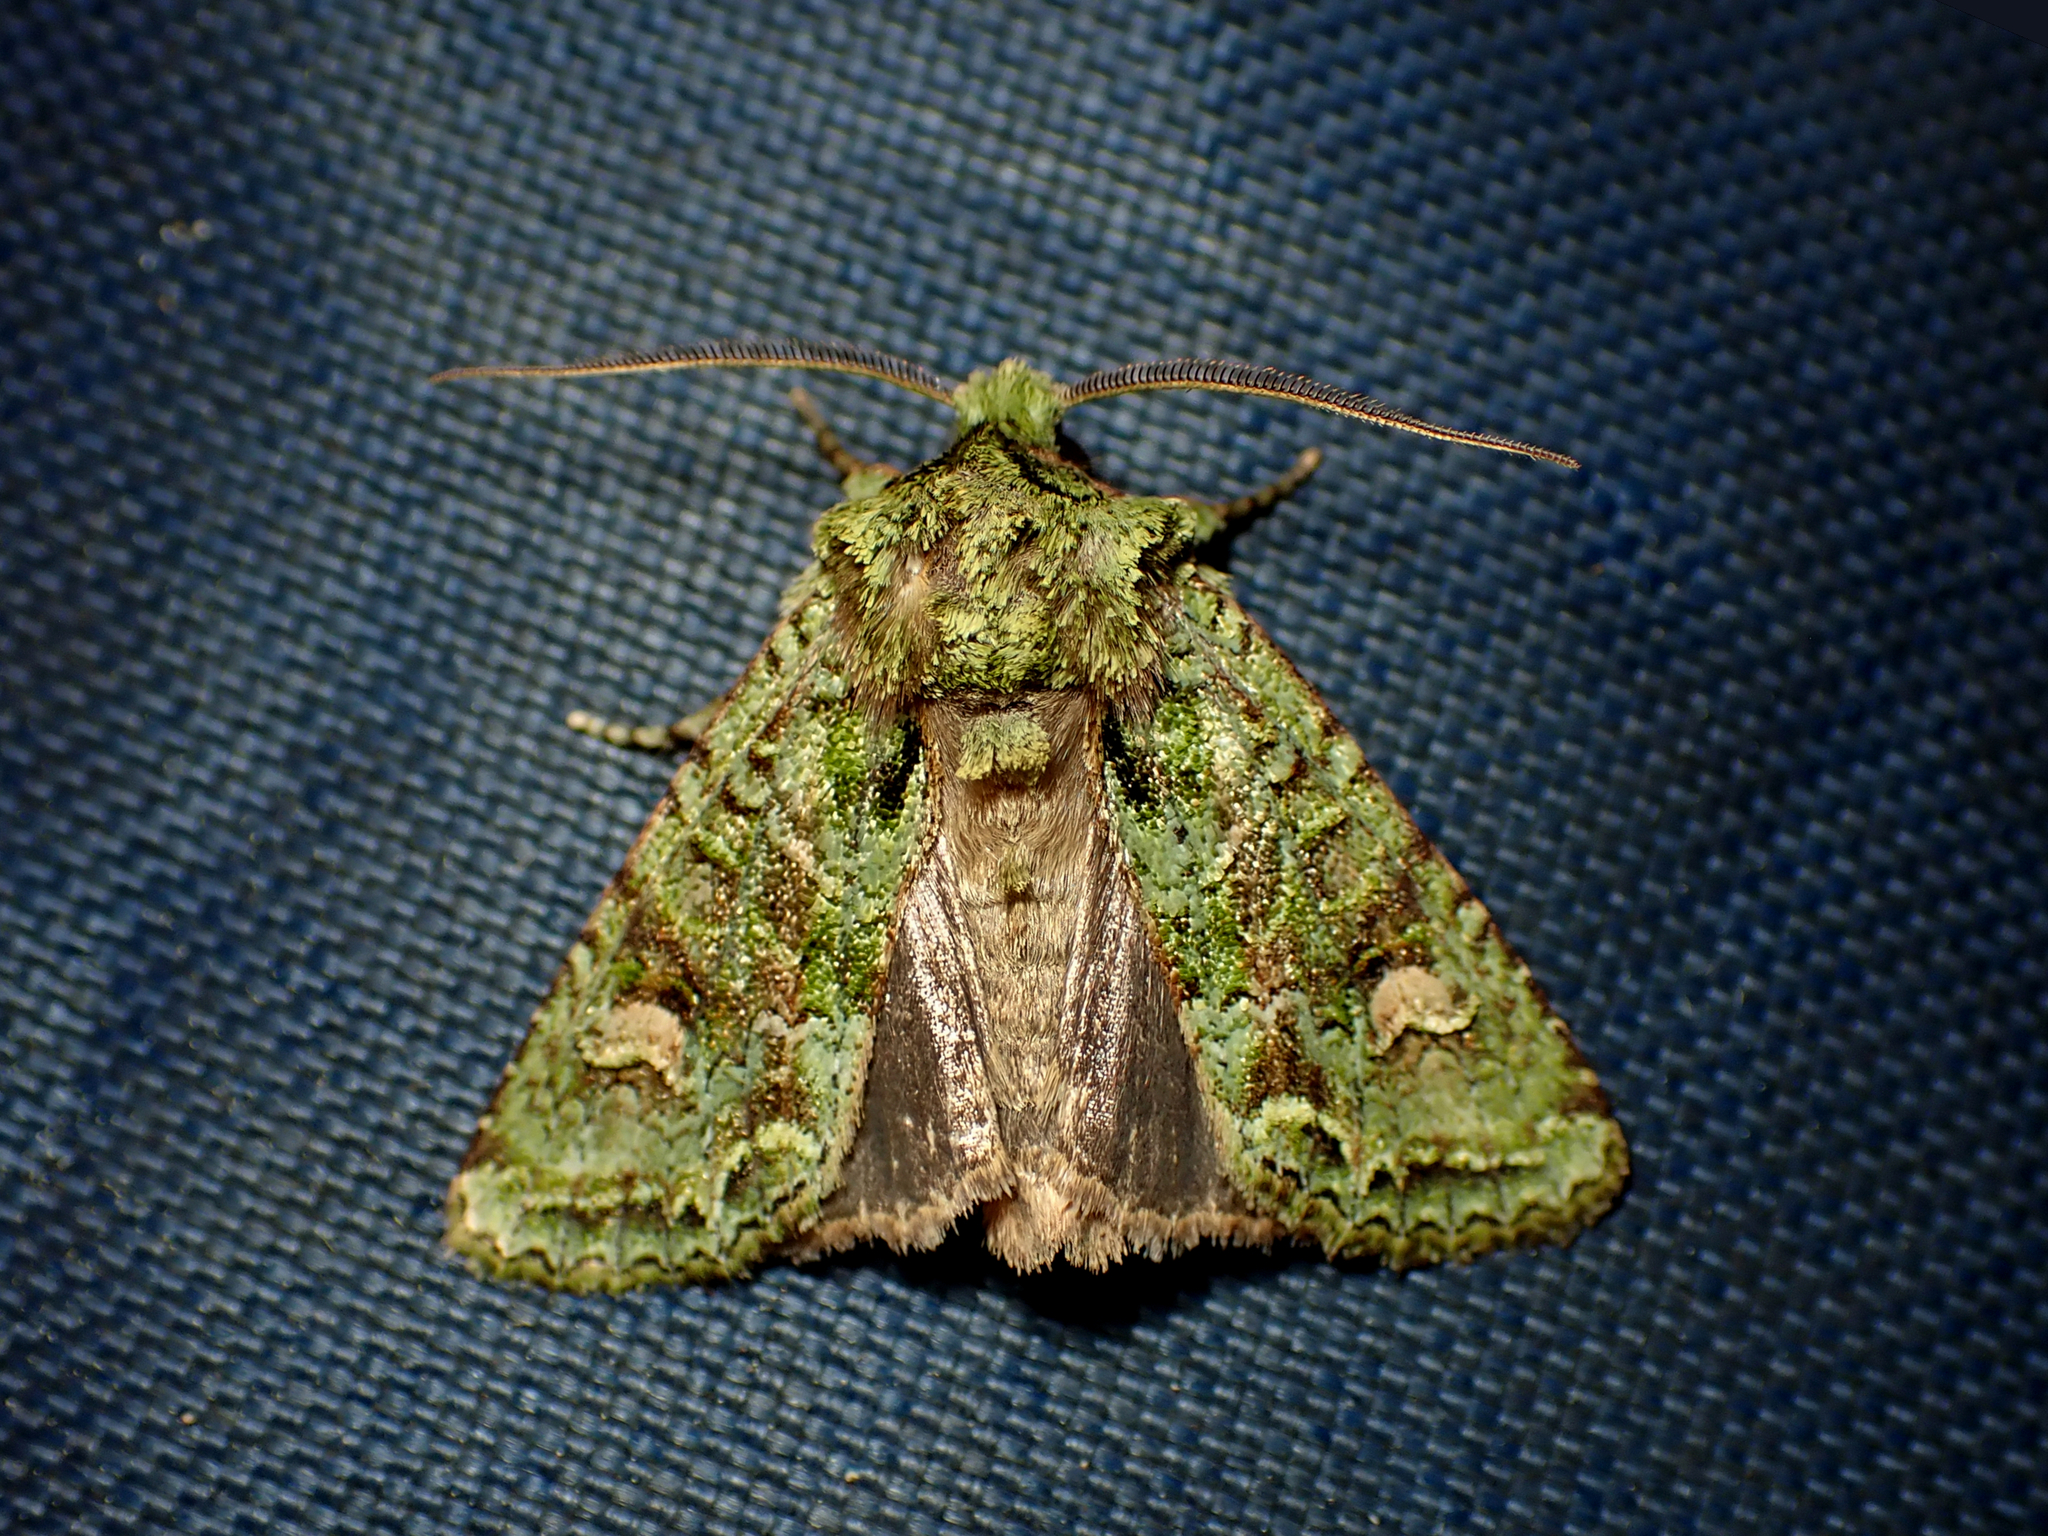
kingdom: Animalia
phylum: Arthropoda
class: Insecta
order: Lepidoptera
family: Noctuidae
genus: Ichneutica
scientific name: Ichneutica
